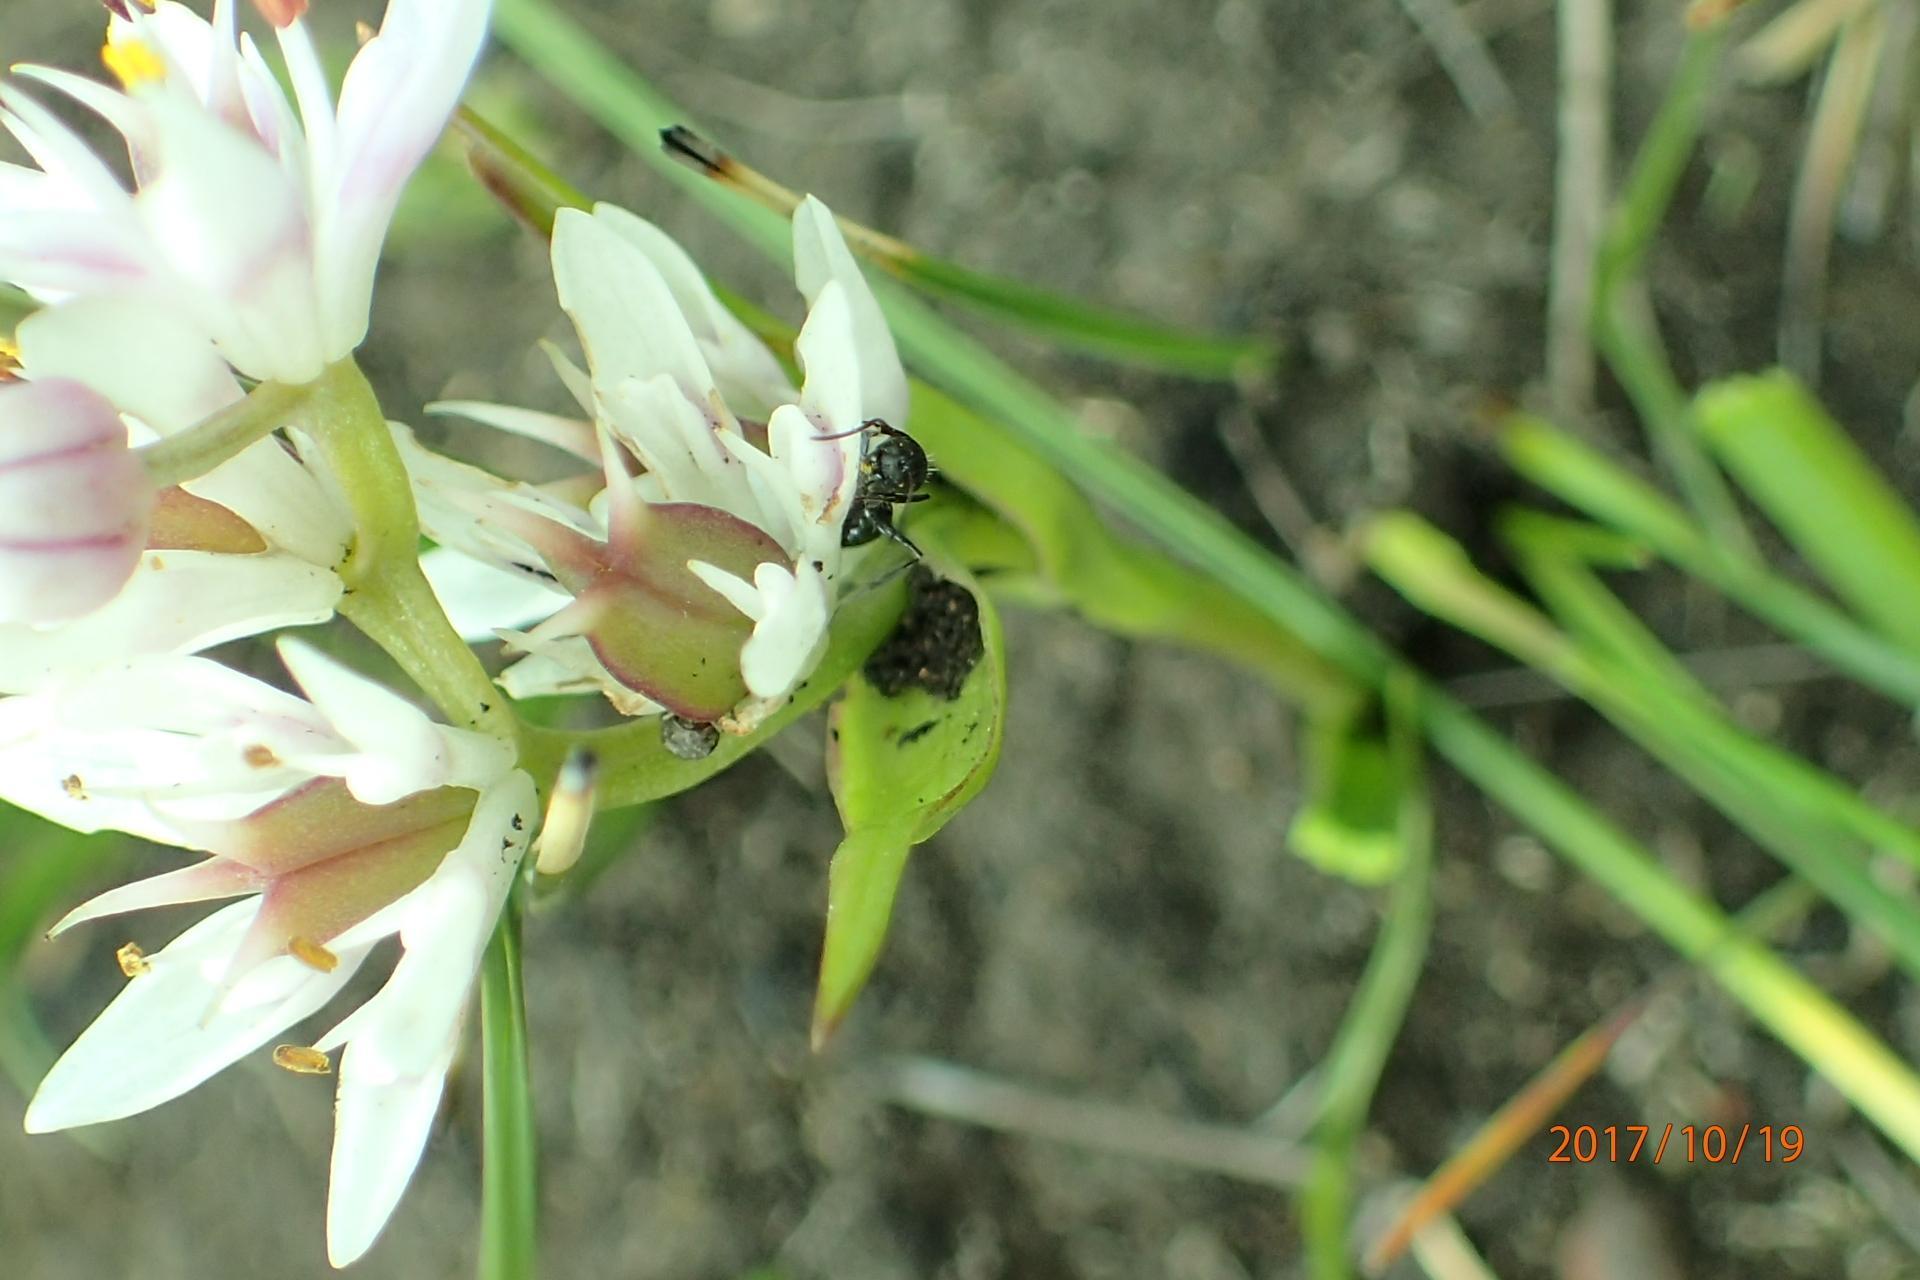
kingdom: Plantae
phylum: Tracheophyta
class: Liliopsida
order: Liliales
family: Colchicaceae
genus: Wurmbea
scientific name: Wurmbea kraussii
